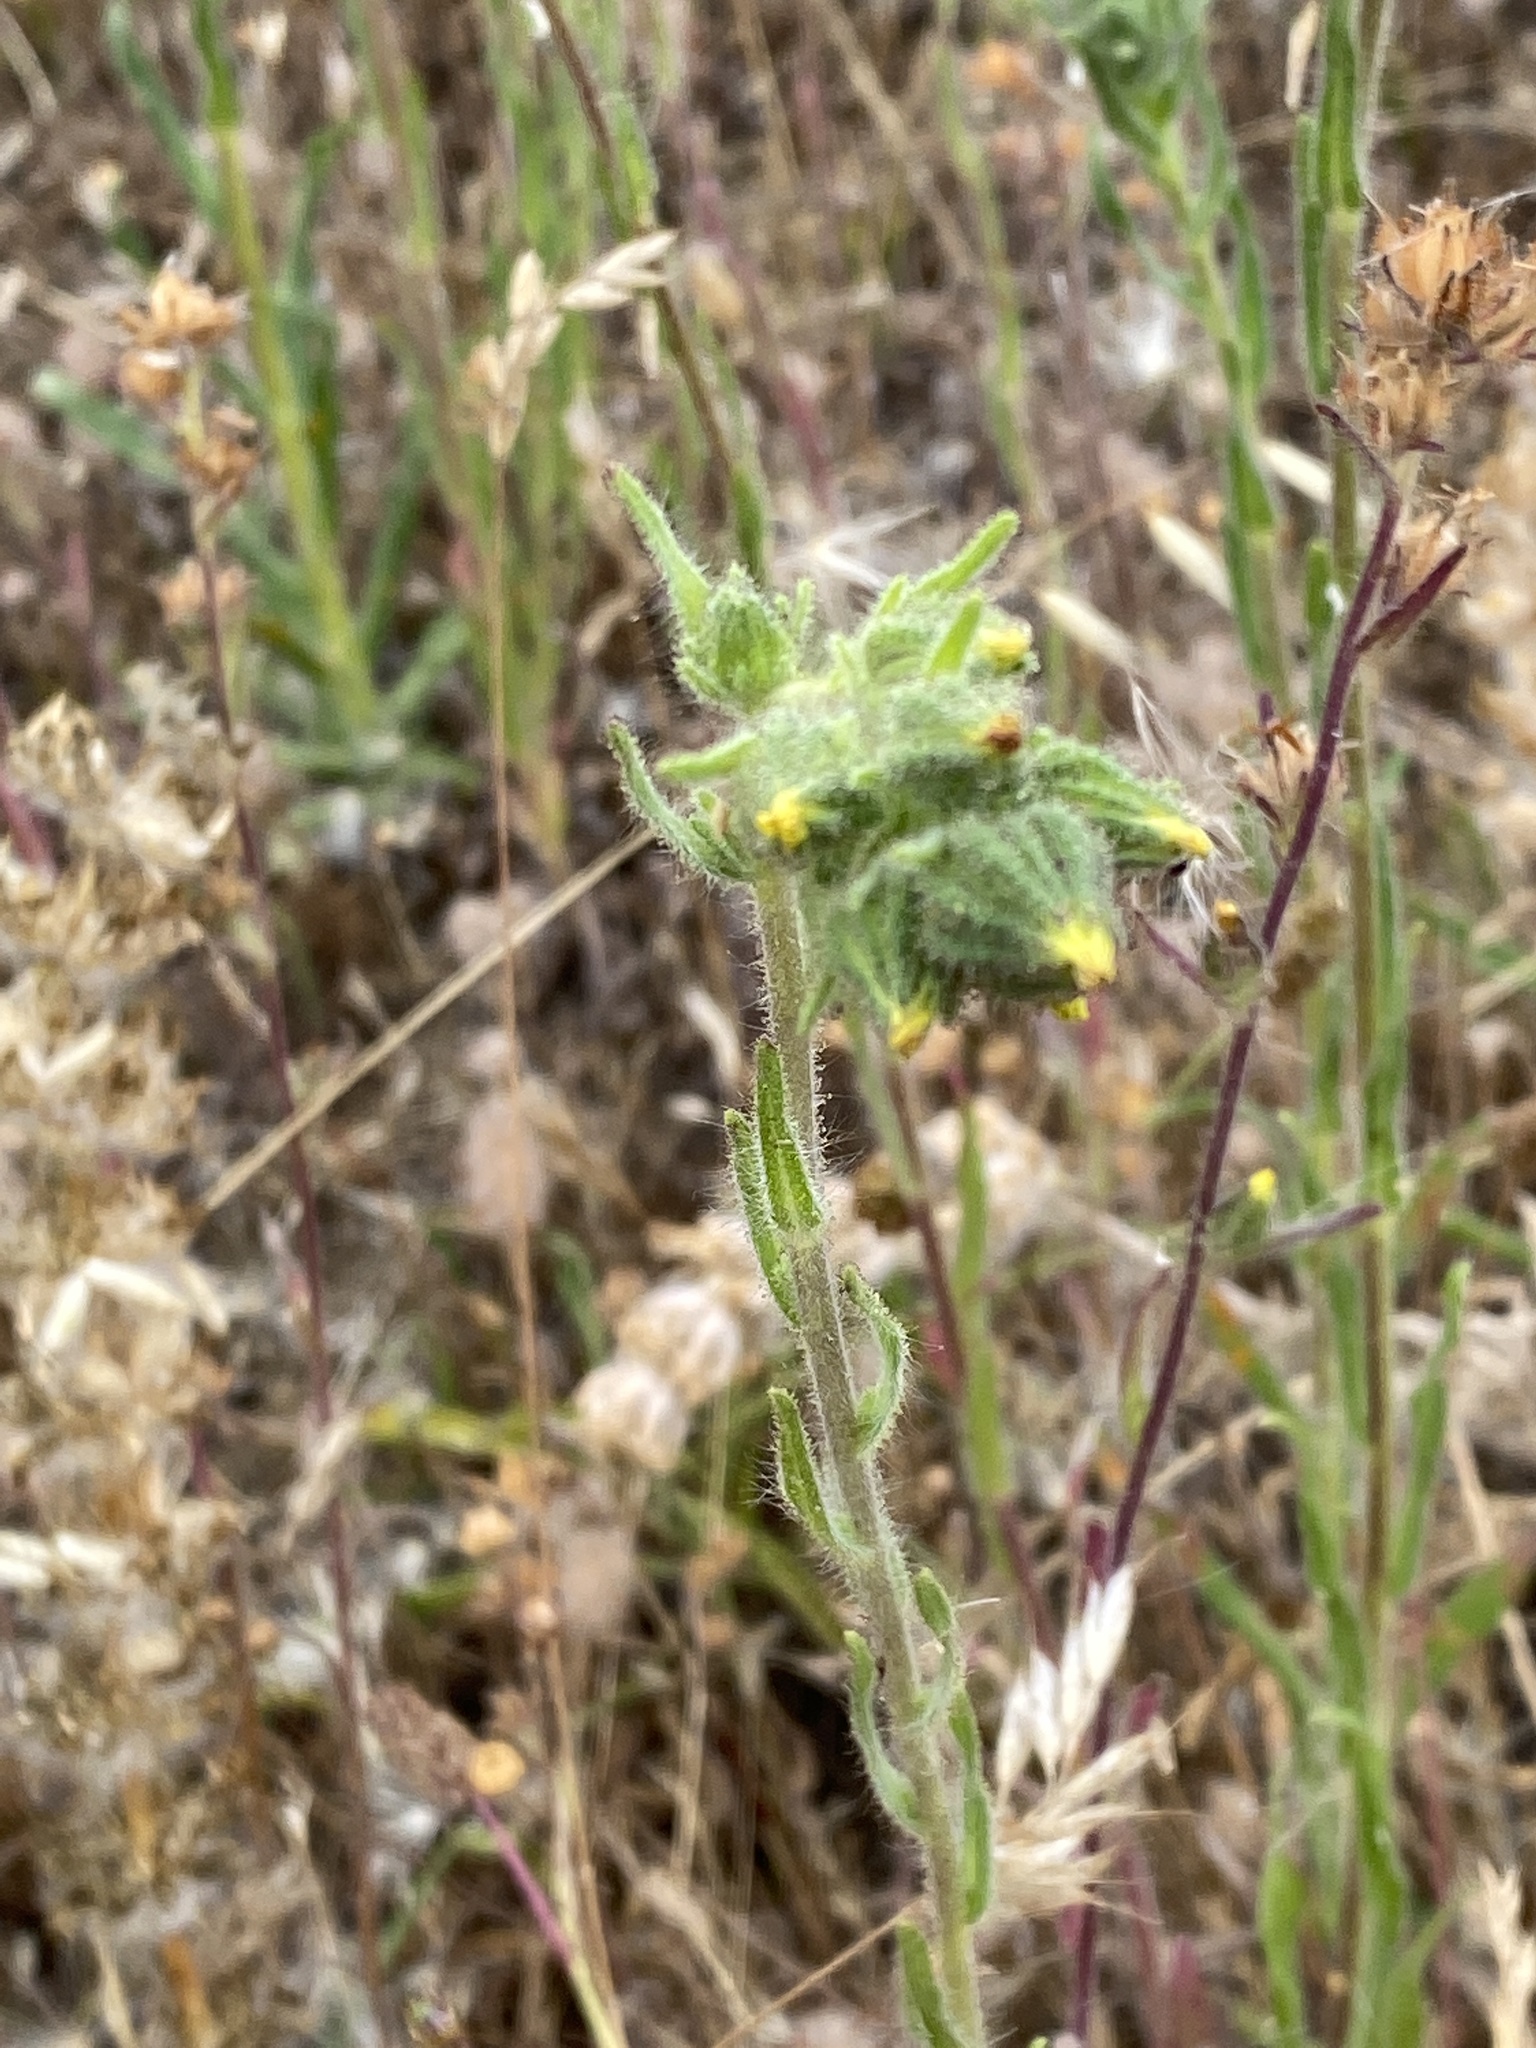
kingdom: Plantae
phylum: Tracheophyta
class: Magnoliopsida
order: Asterales
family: Asteraceae
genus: Madia
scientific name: Madia sativa
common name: Coast tarweed
